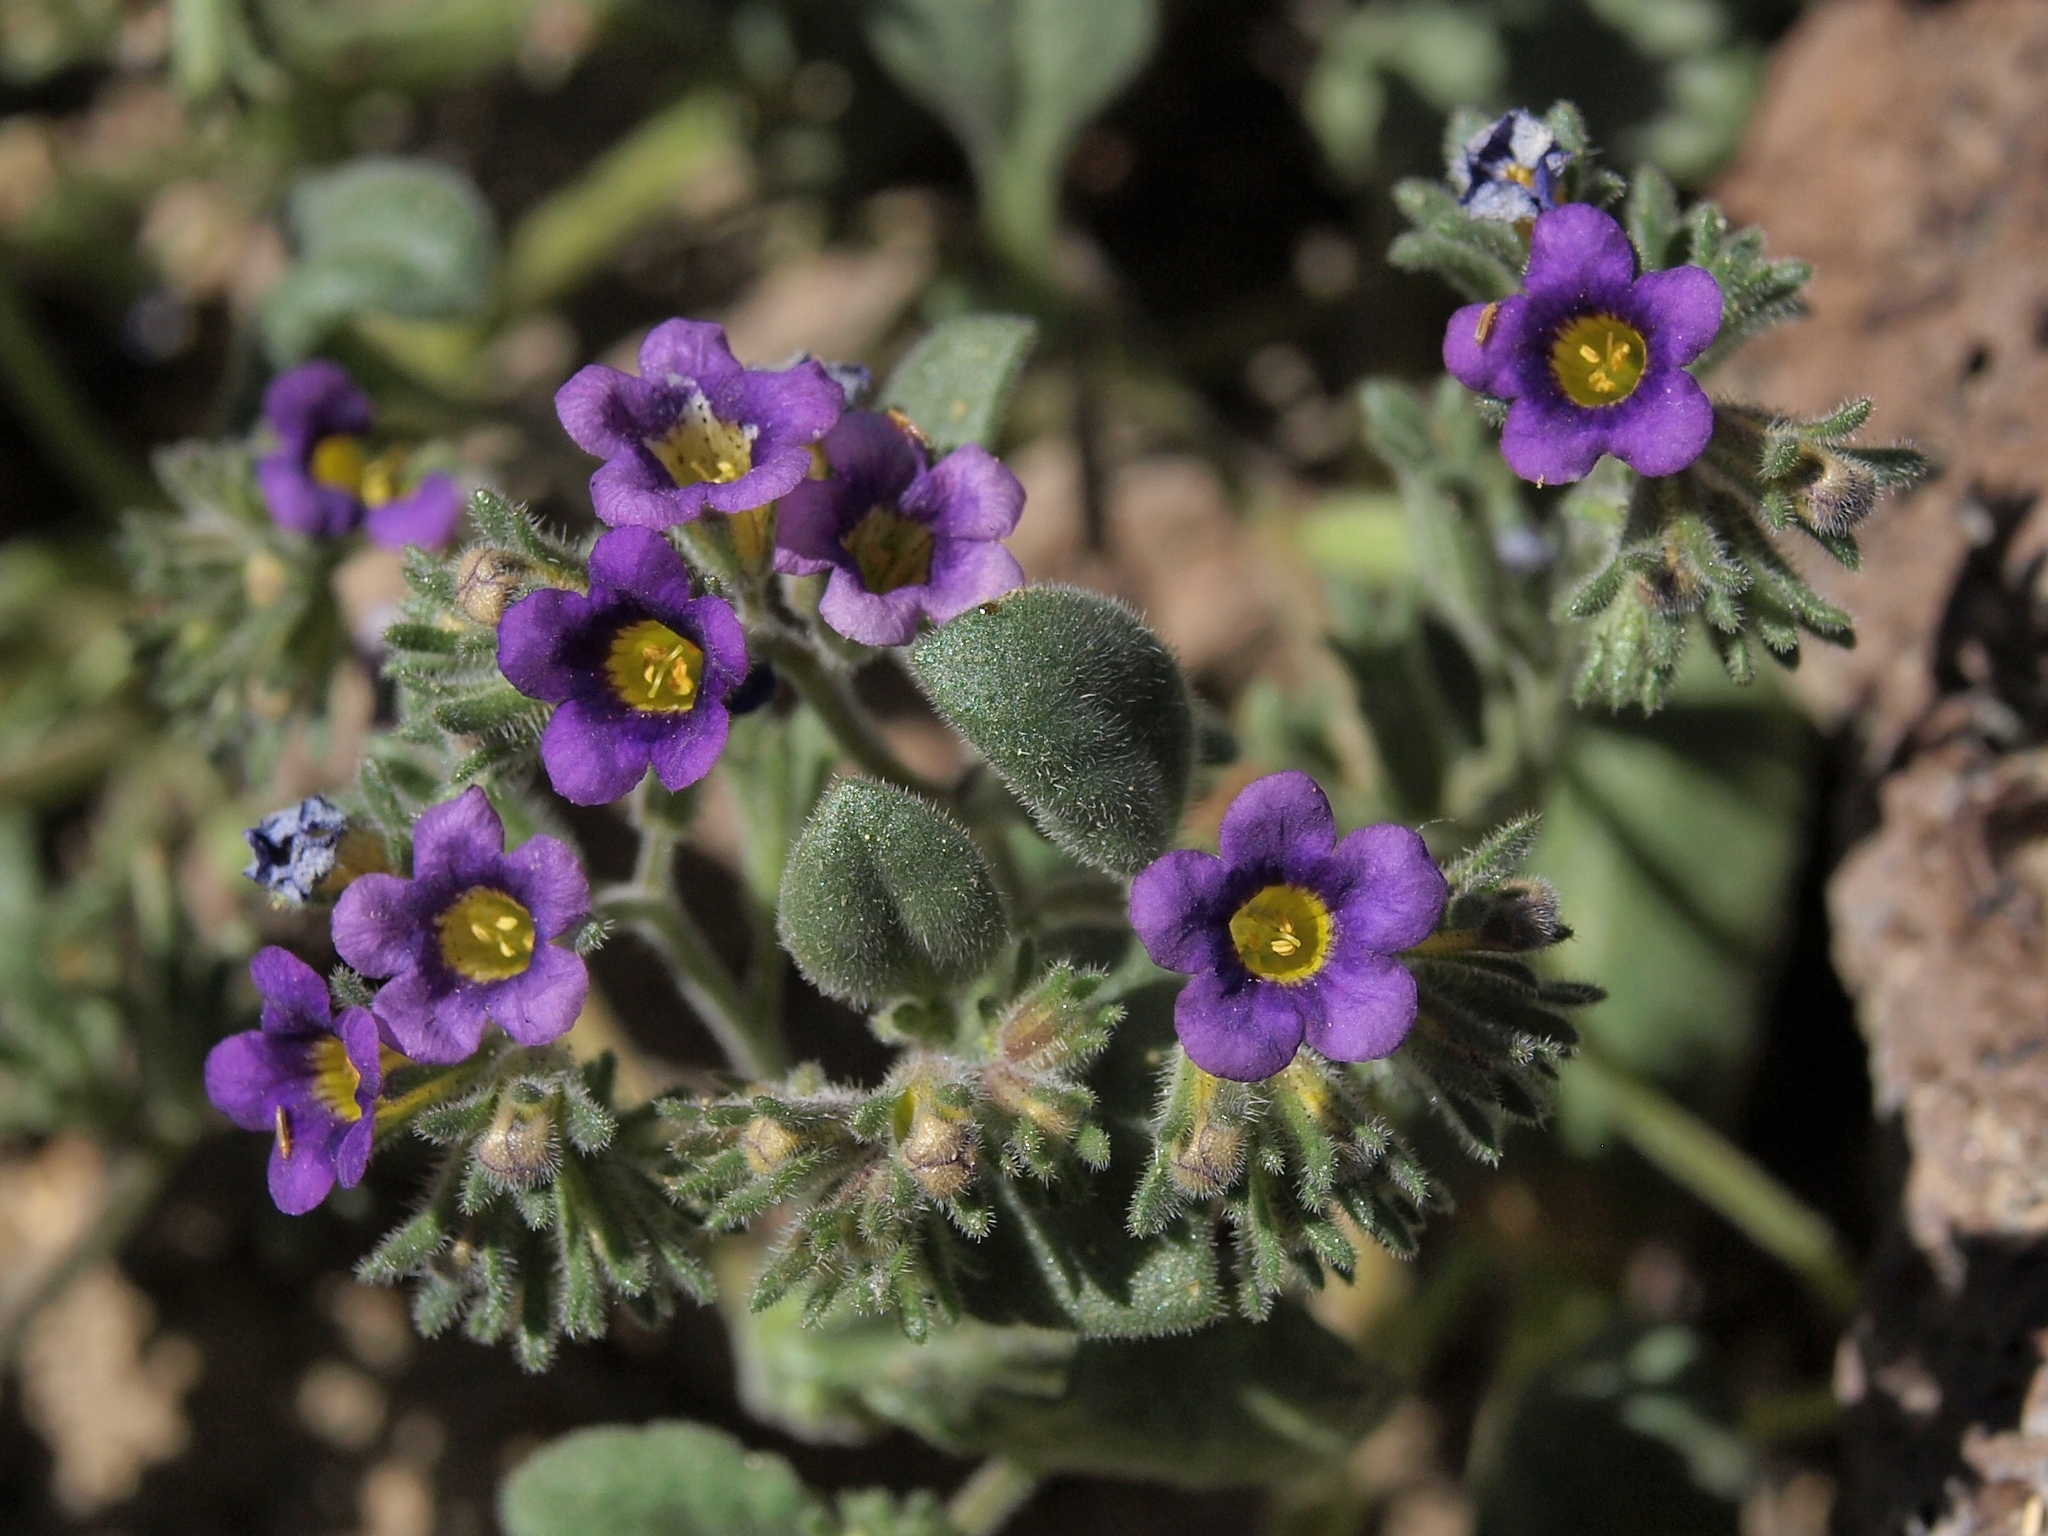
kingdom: Plantae
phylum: Tracheophyta
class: Magnoliopsida
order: Boraginales
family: Hydrophyllaceae
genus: Phacelia
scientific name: Phacelia gymnoclada
